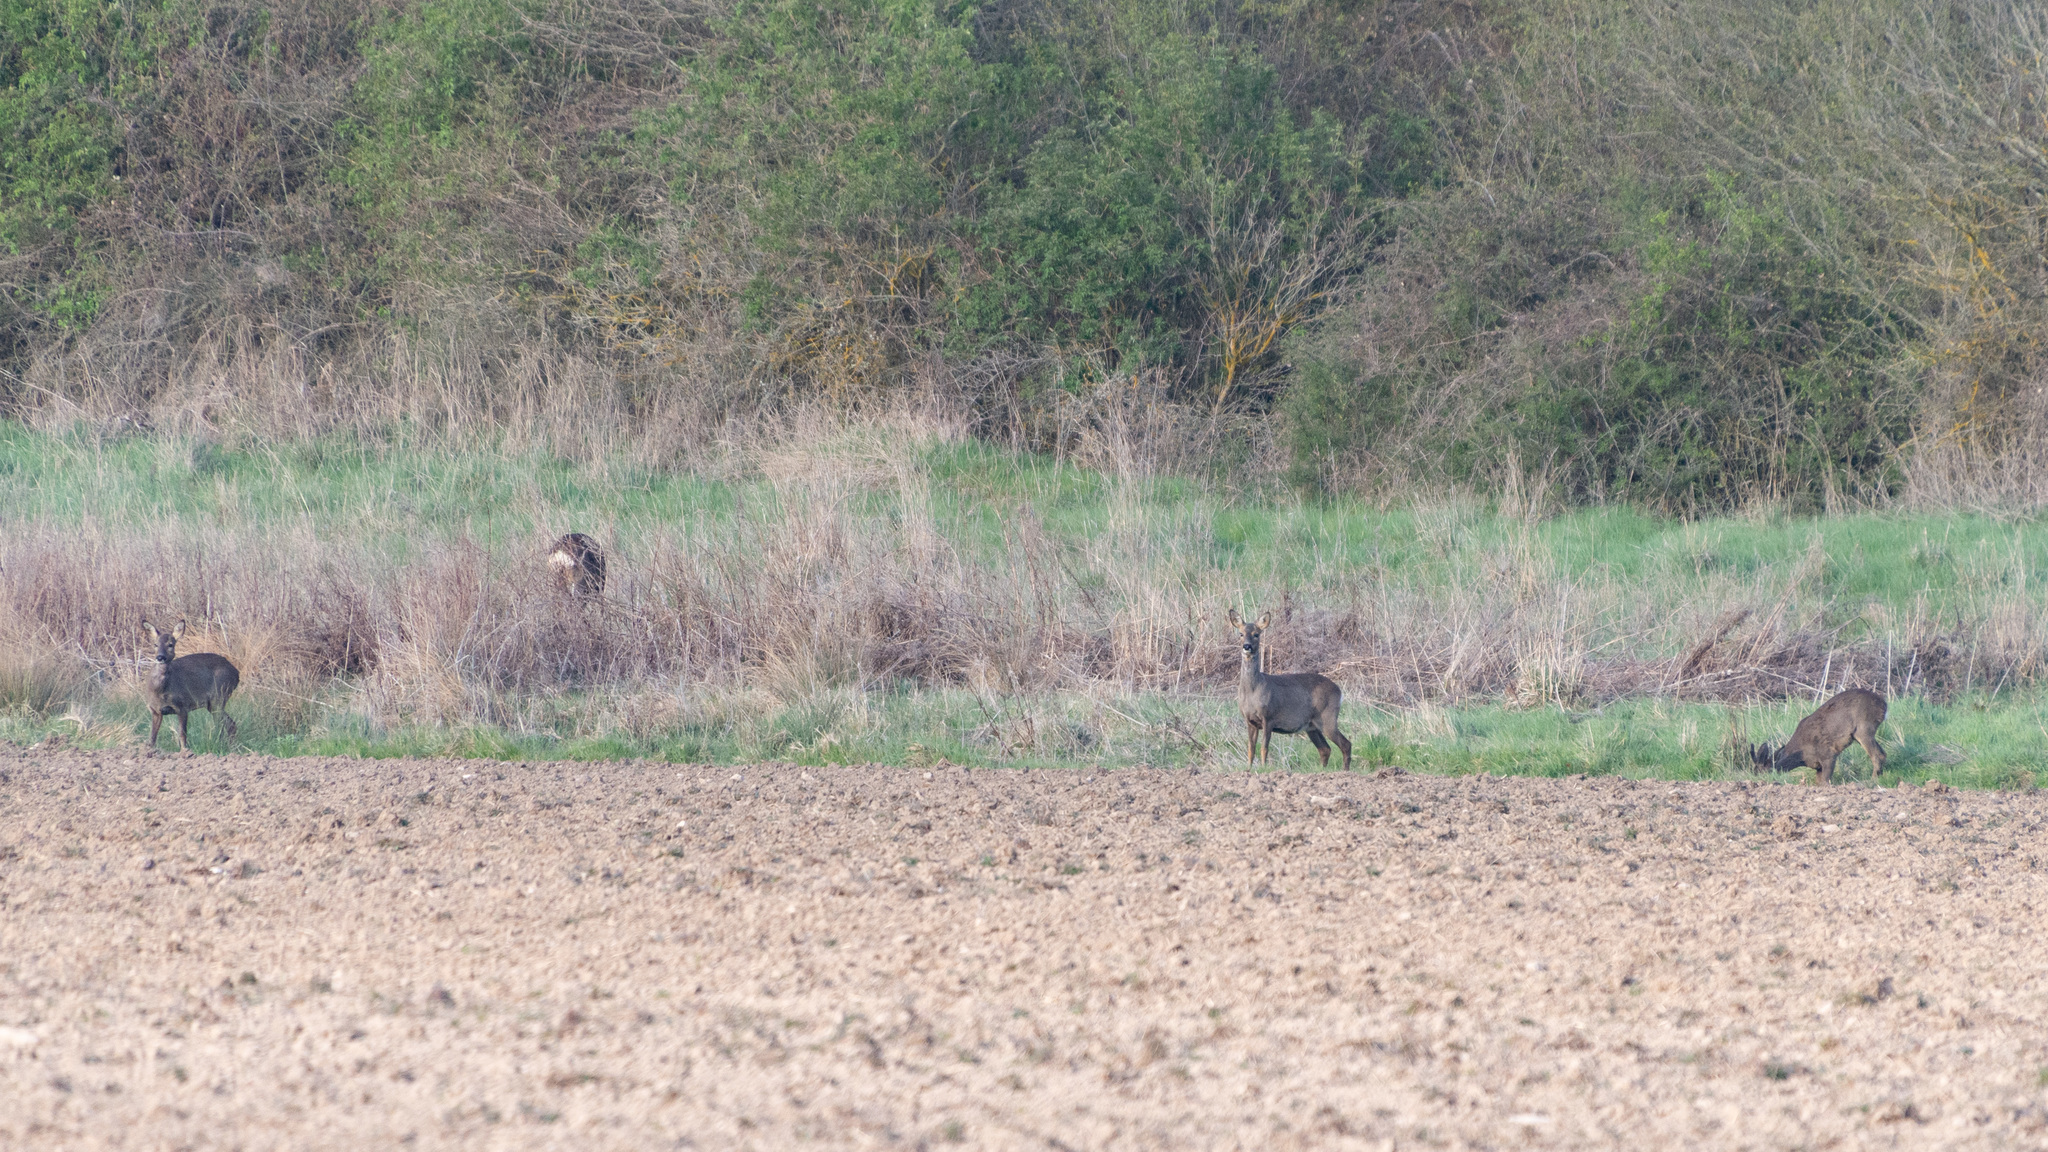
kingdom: Animalia
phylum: Chordata
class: Mammalia
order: Artiodactyla
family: Cervidae
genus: Capreolus
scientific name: Capreolus capreolus
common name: Western roe deer
